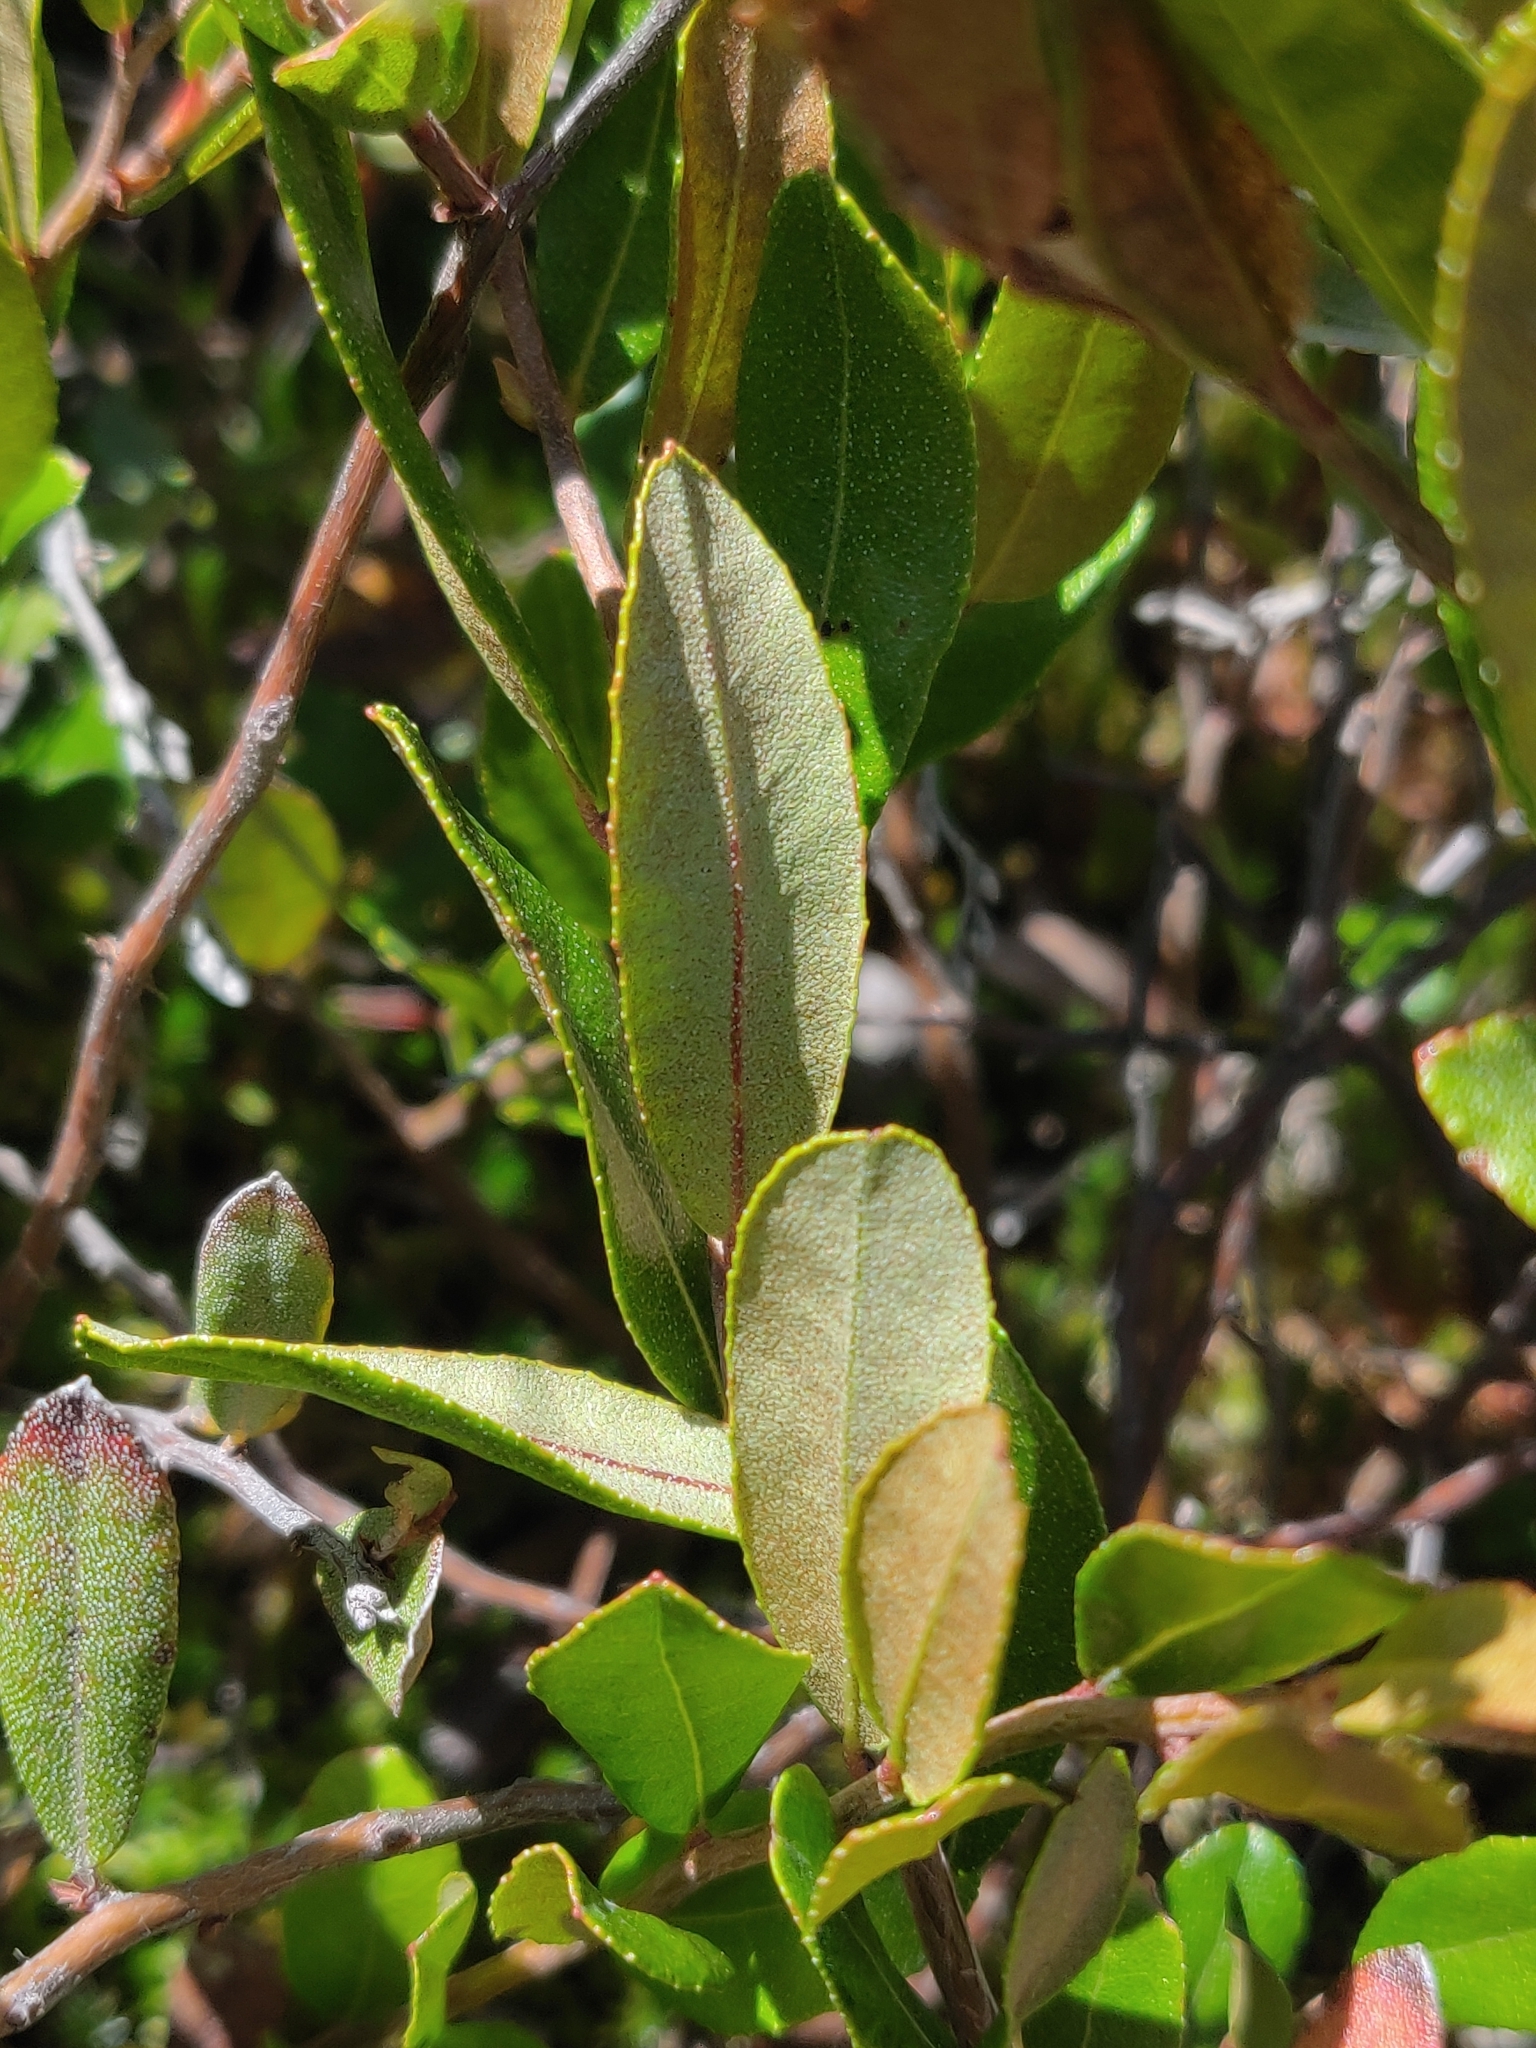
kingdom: Plantae
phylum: Tracheophyta
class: Magnoliopsida
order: Ericales
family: Ericaceae
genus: Chamaedaphne
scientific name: Chamaedaphne calyculata
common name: Leatherleaf
